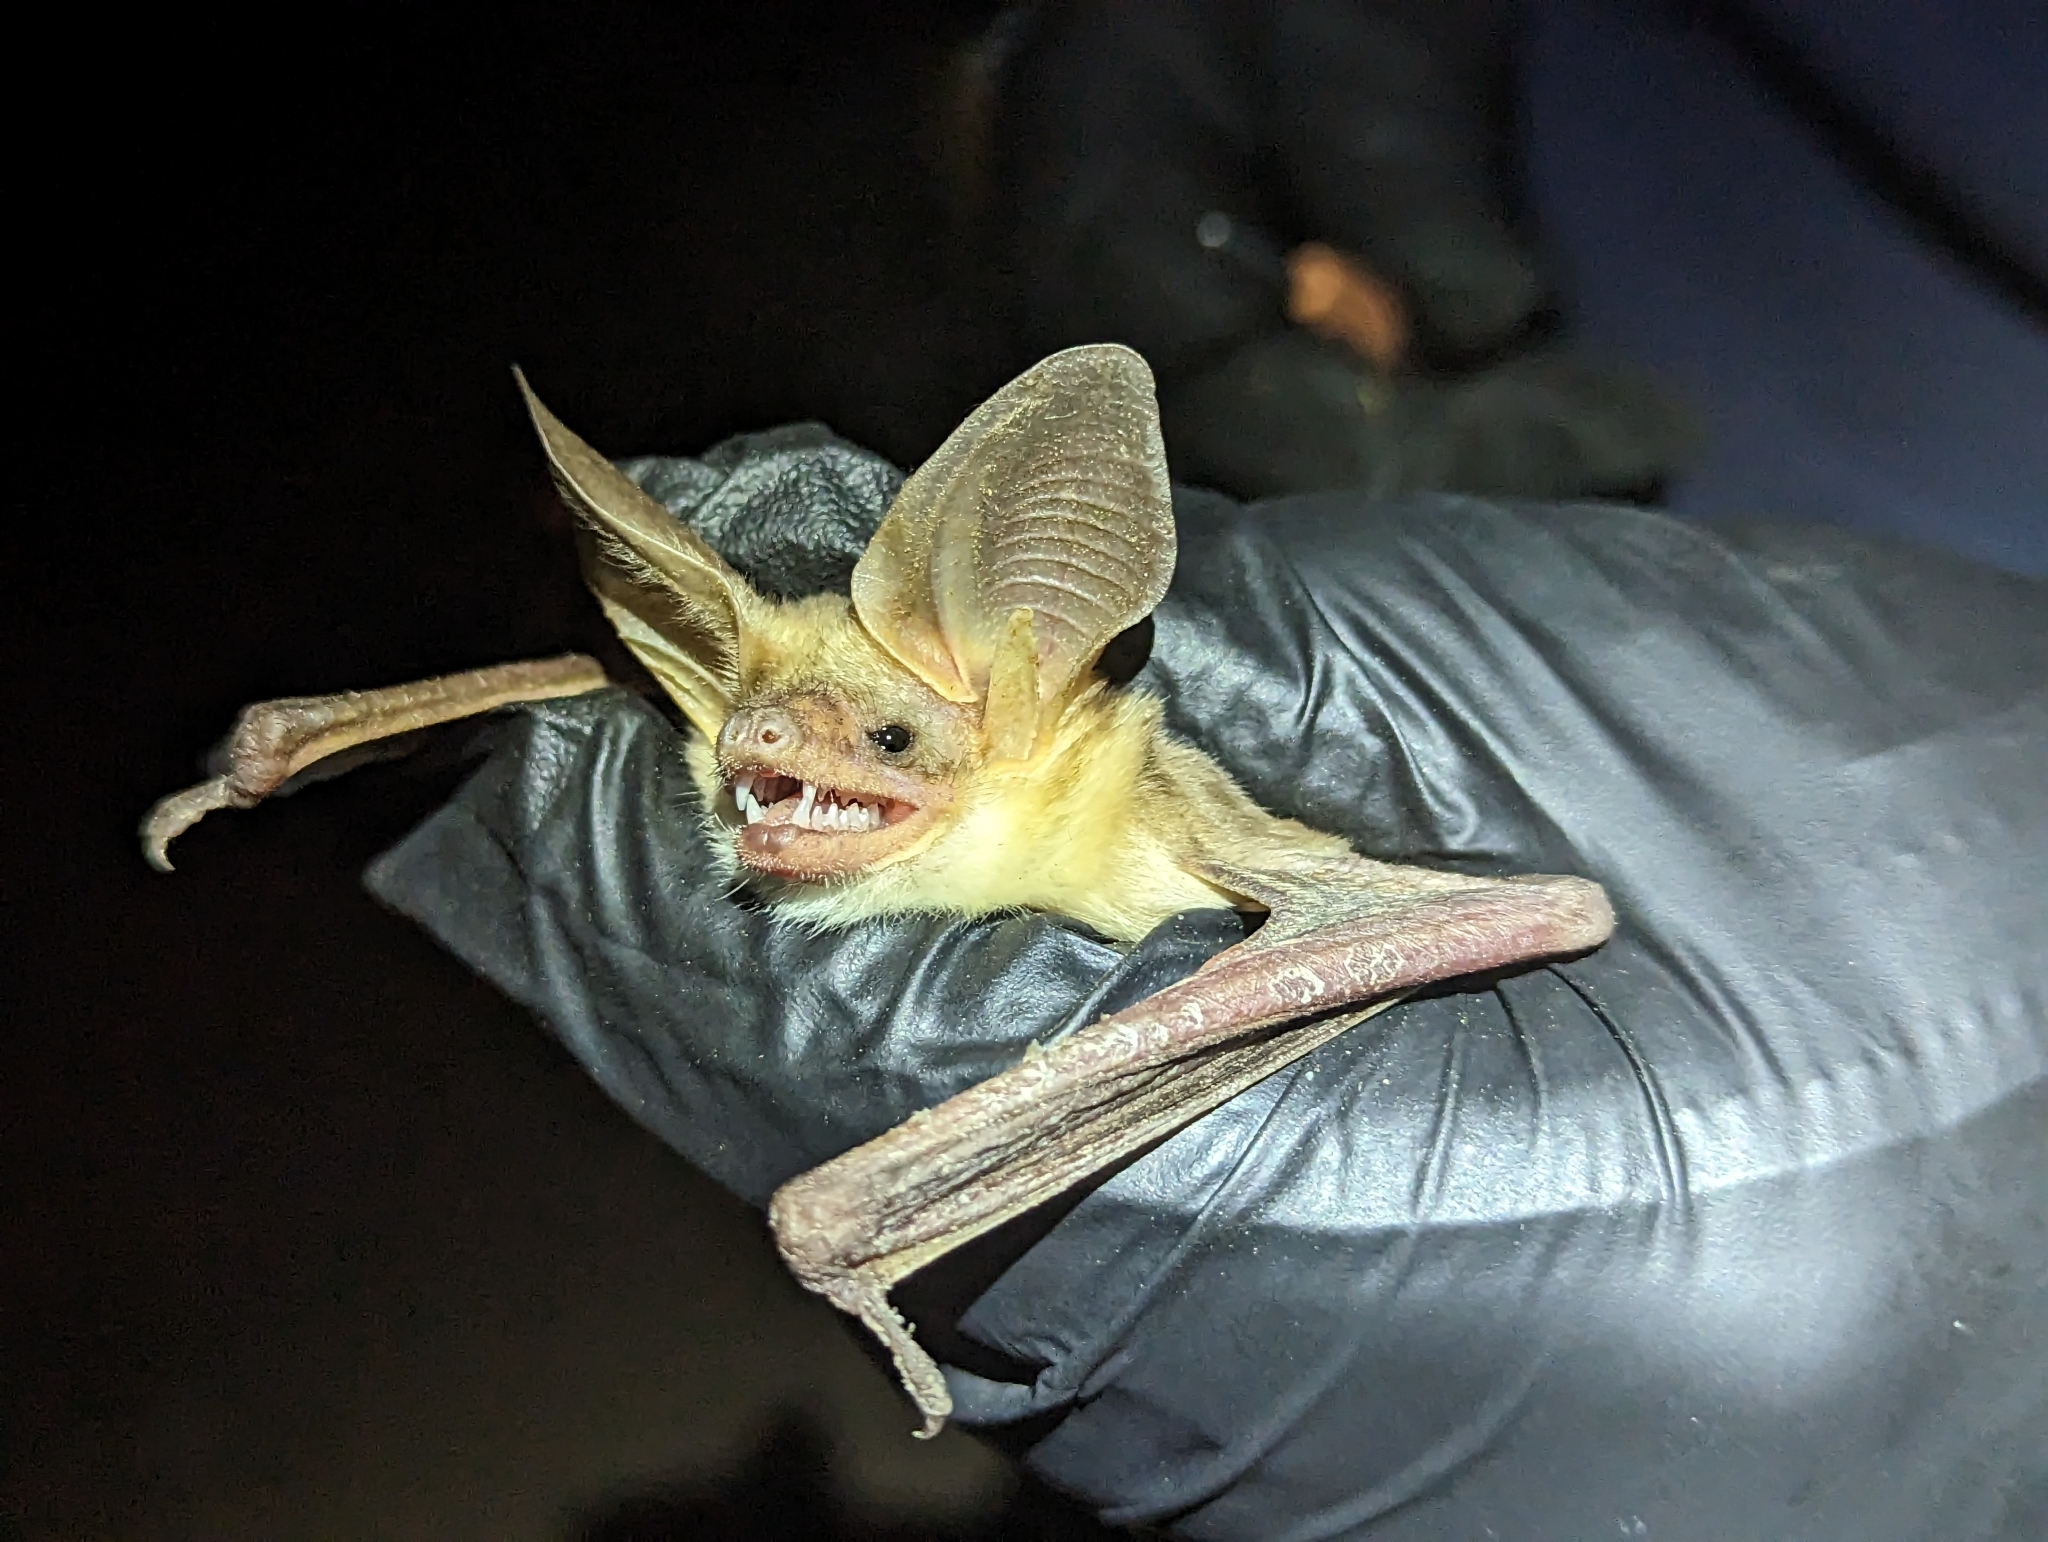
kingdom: Animalia
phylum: Chordata
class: Mammalia
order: Chiroptera
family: Vespertilionidae
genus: Antrozous
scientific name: Antrozous pallidus
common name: Pallid bat
